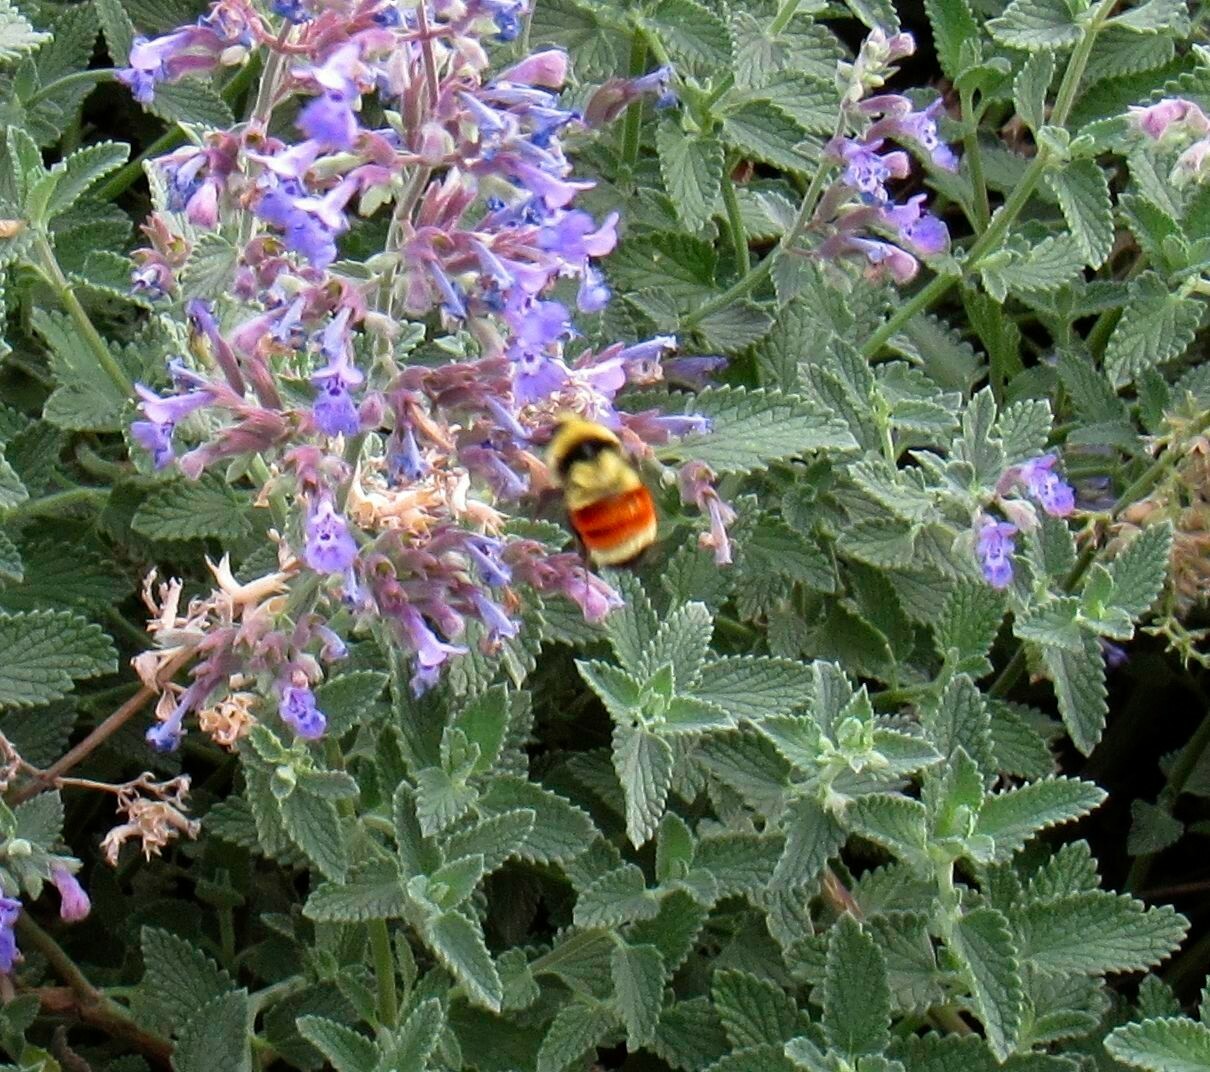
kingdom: Animalia
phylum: Arthropoda
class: Insecta
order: Hymenoptera
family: Apidae
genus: Bombus
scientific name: Bombus huntii
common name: Hunt bumble bee
